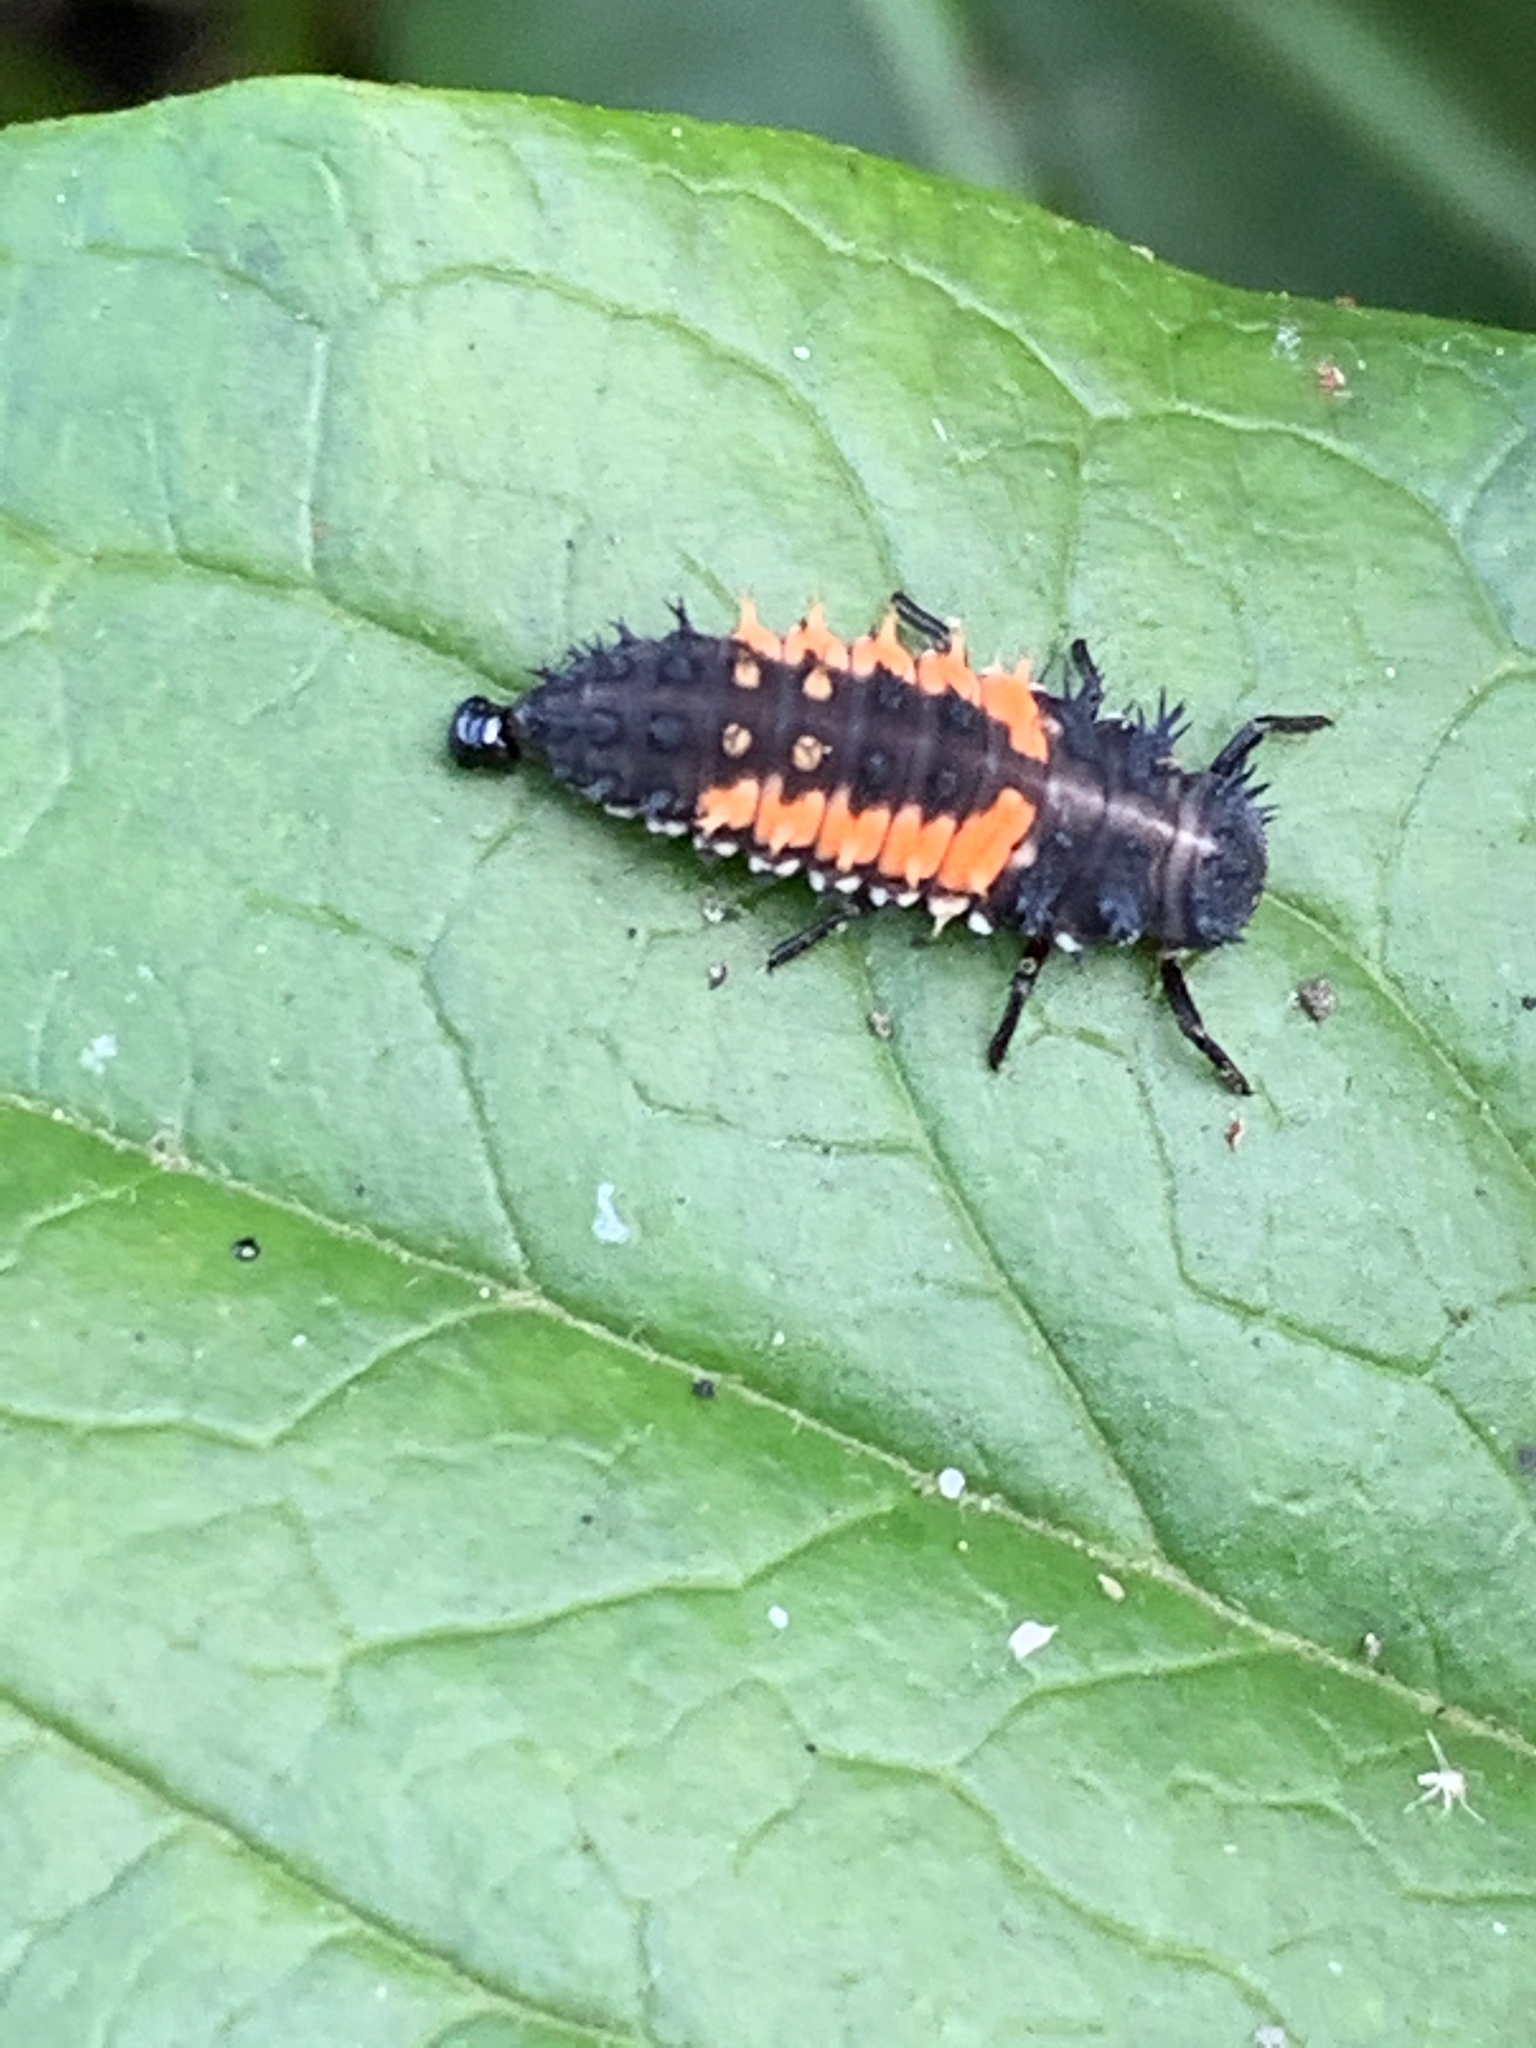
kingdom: Animalia
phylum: Arthropoda
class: Insecta
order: Coleoptera
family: Coccinellidae
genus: Harmonia
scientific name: Harmonia axyridis
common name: Harlequin ladybird
